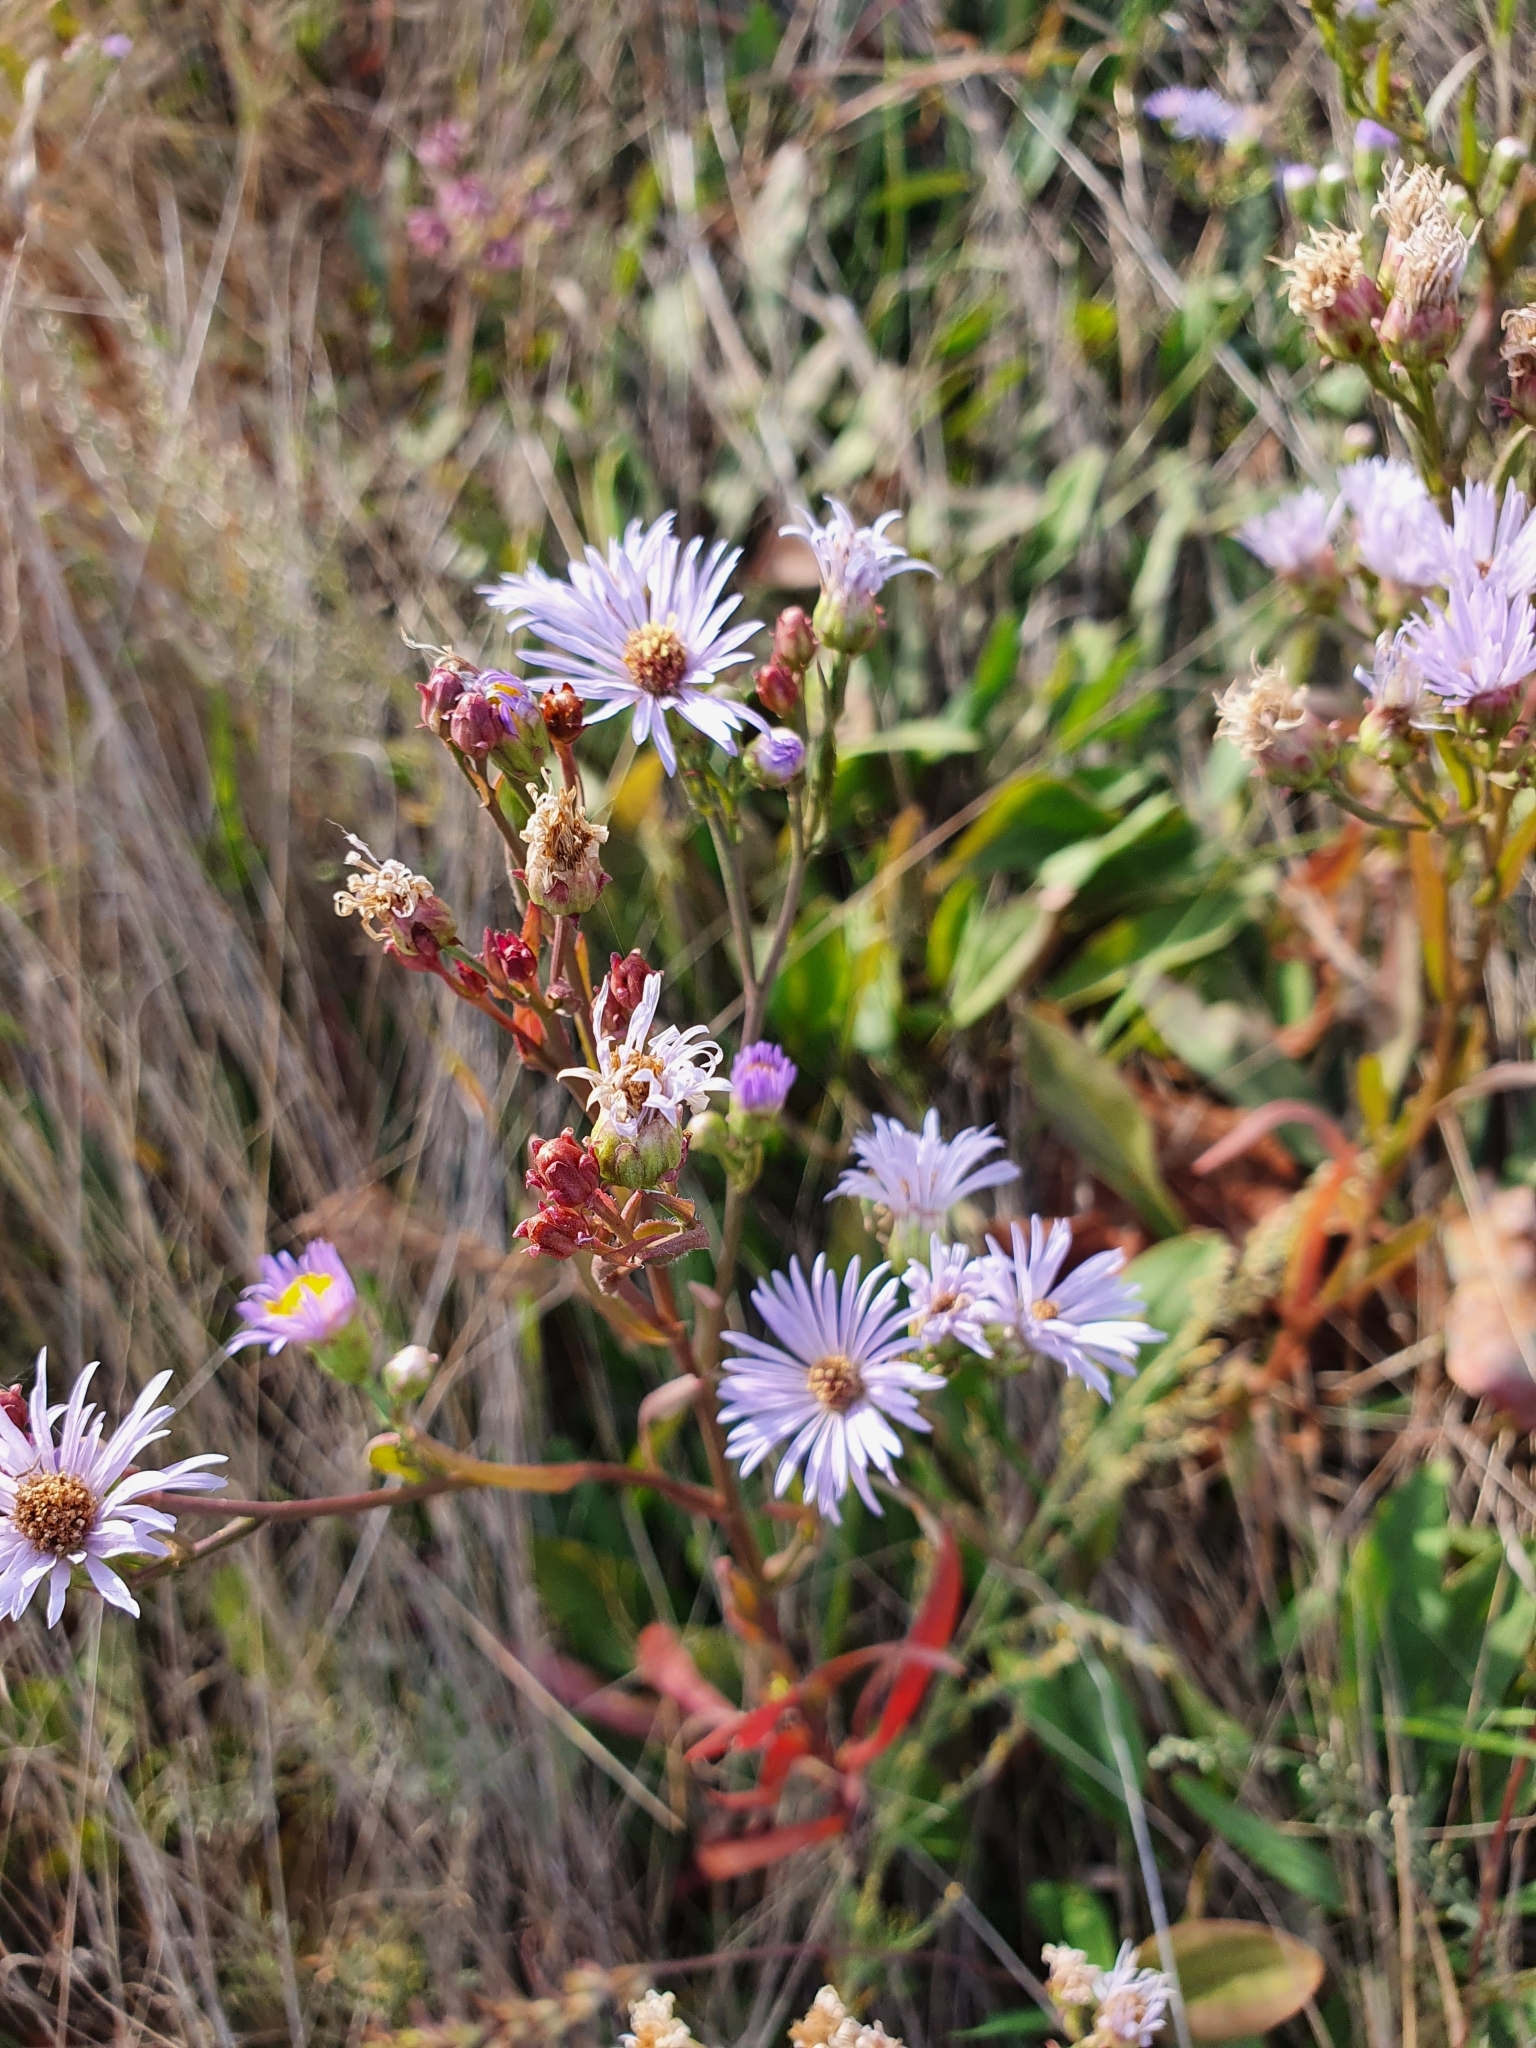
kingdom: Plantae
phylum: Tracheophyta
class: Magnoliopsida
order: Asterales
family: Asteraceae
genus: Tripolium
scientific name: Tripolium pannonicum
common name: Sea aster
